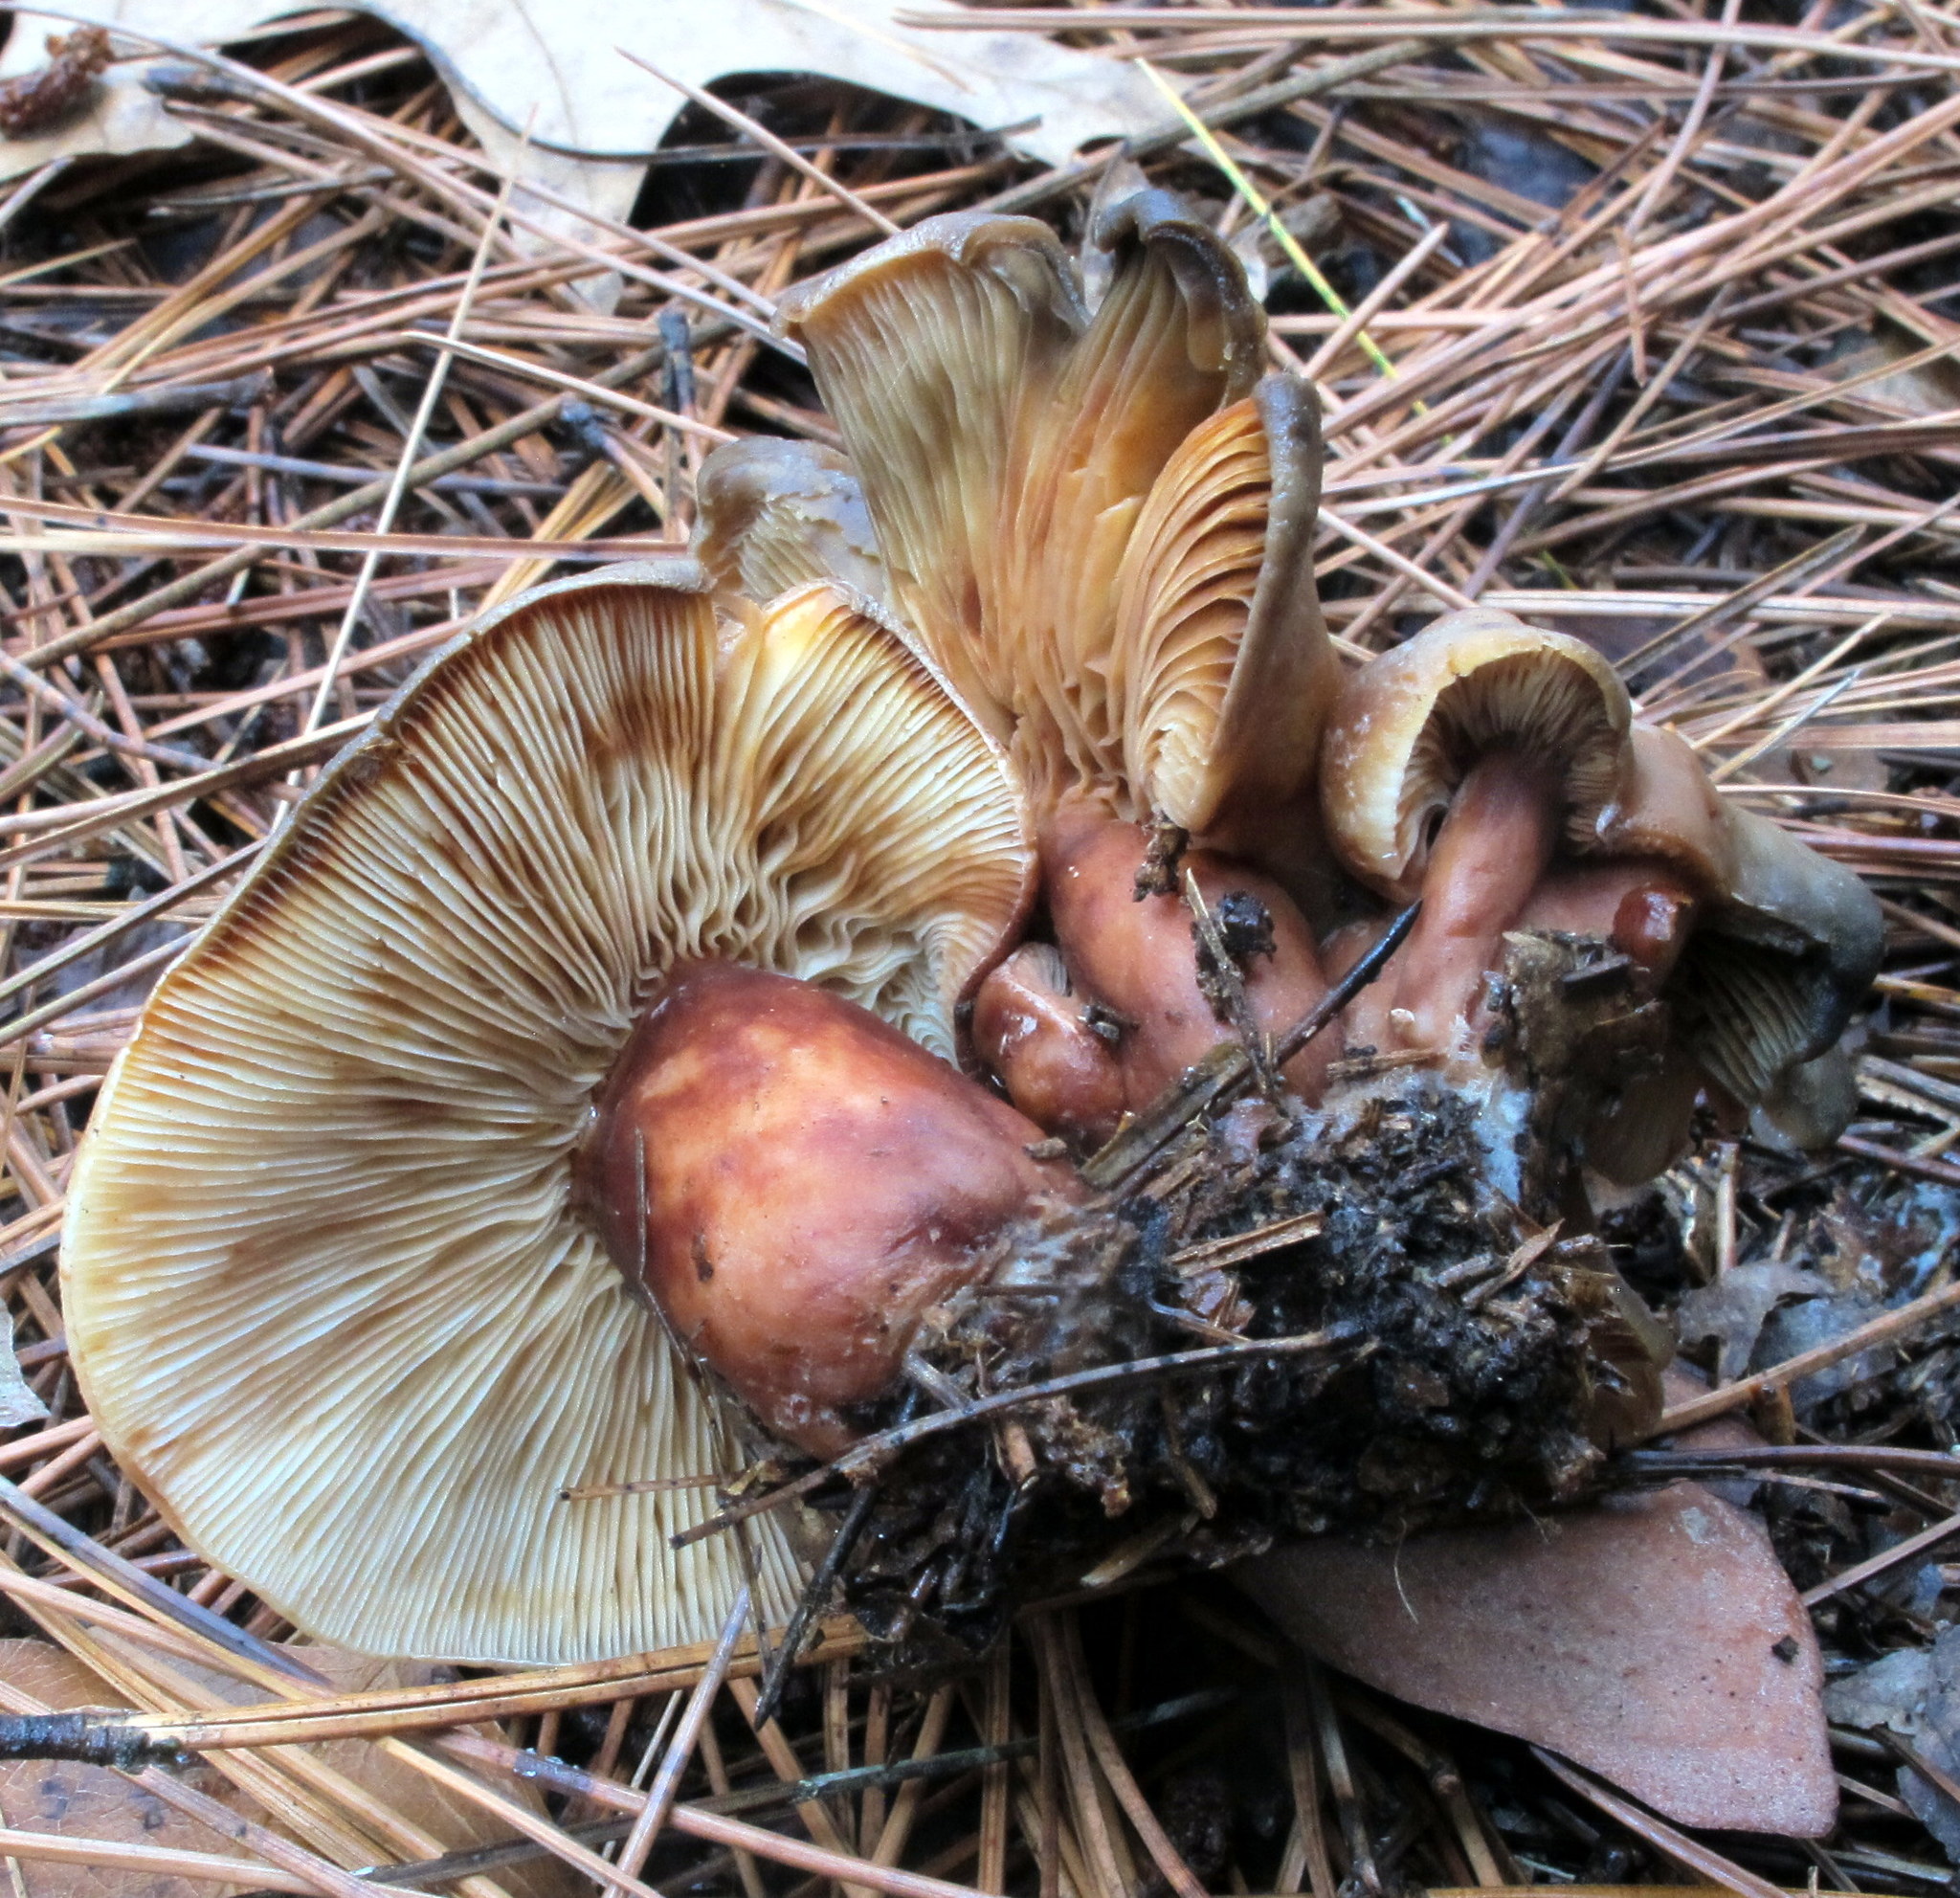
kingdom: Fungi
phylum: Basidiomycota
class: Agaricomycetes
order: Russulales
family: Russulaceae
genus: Lactarius
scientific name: Lactarius vinaceorufescens
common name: Yellow-latex milkcap
